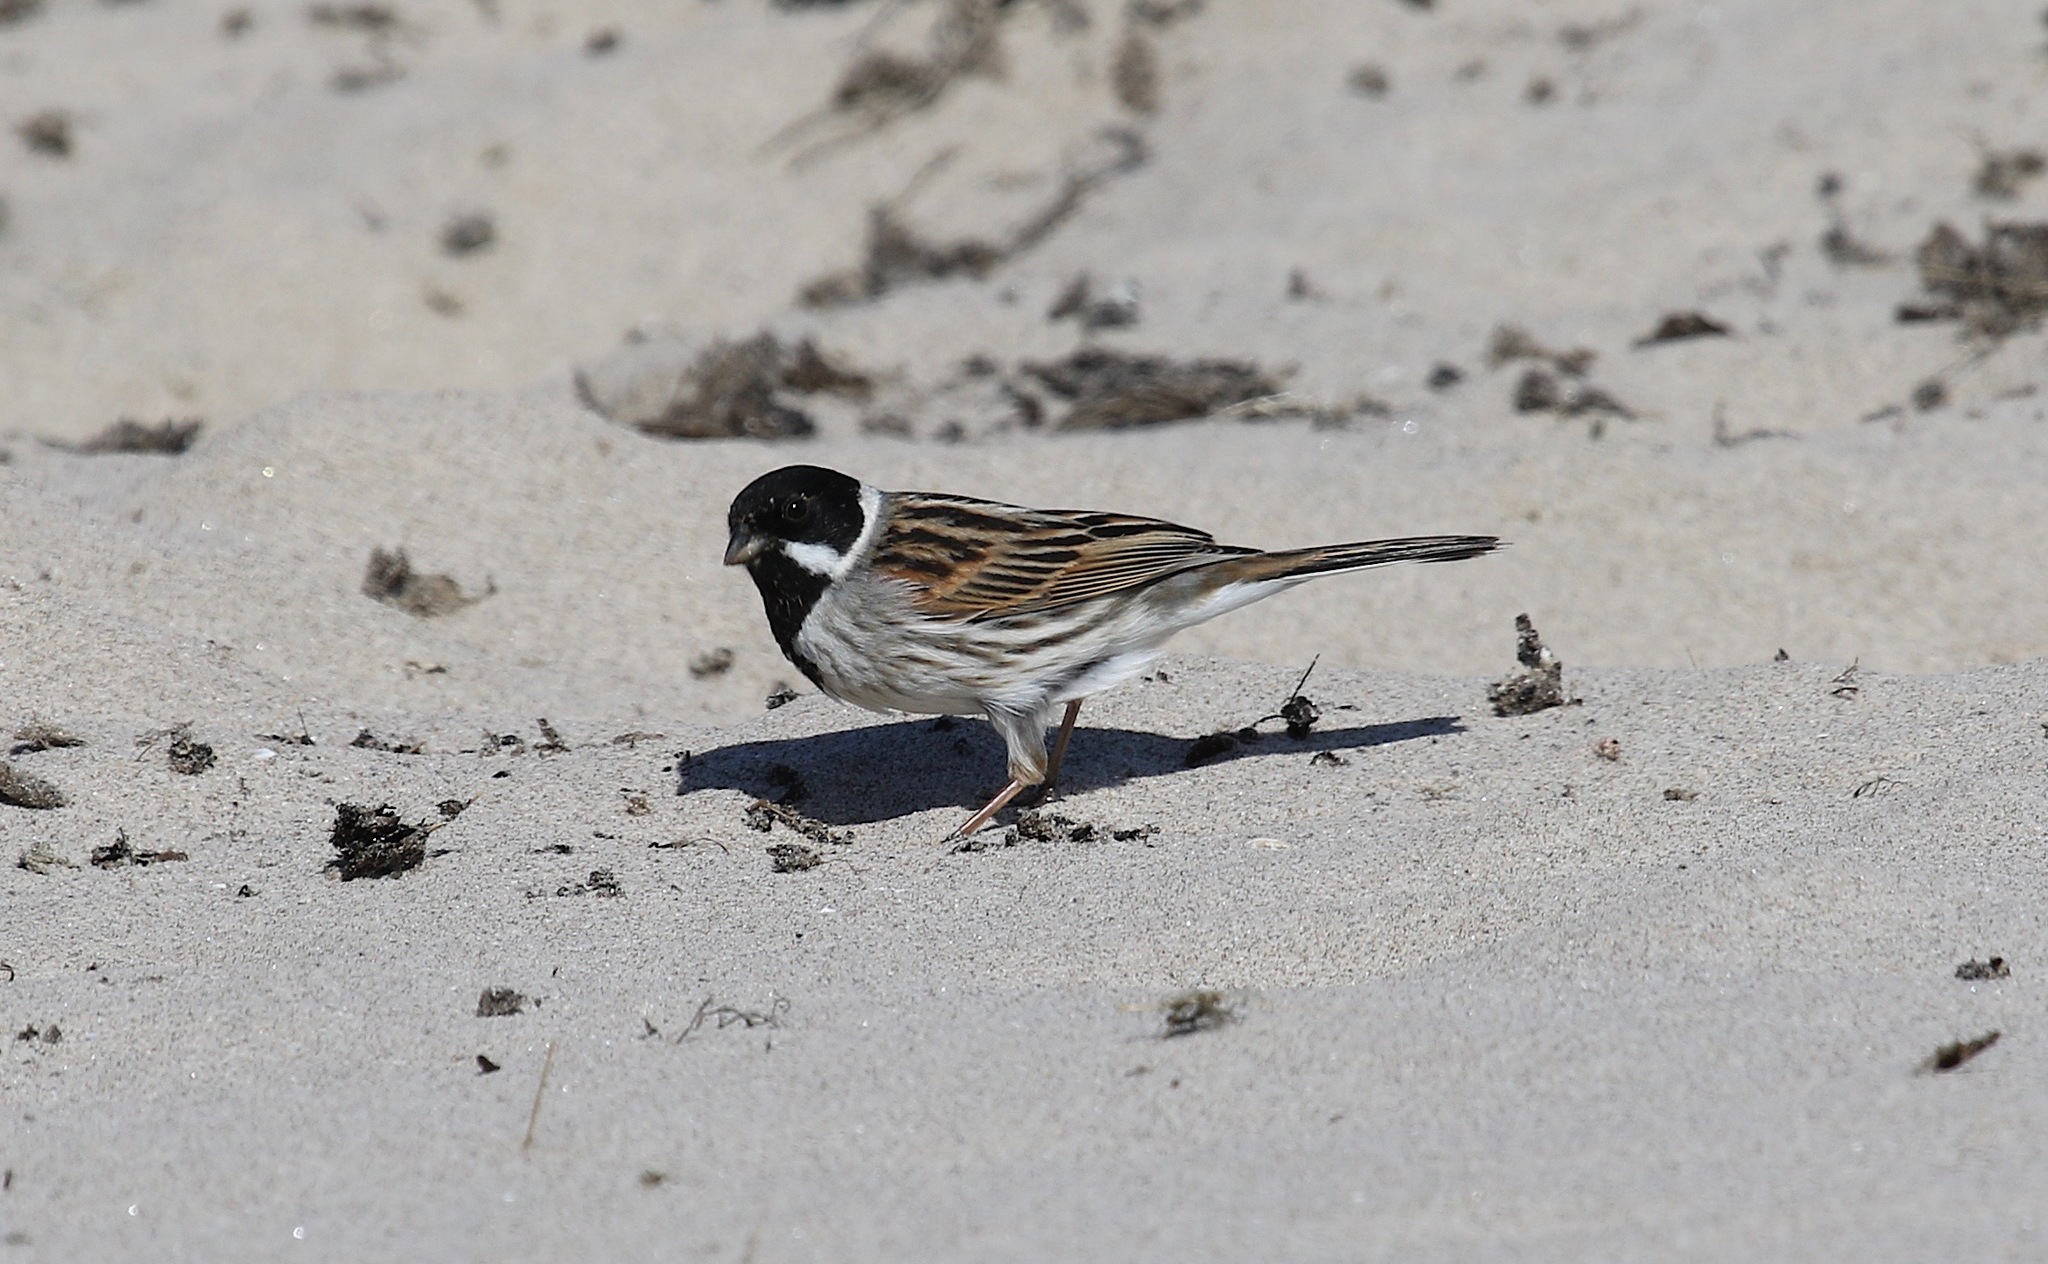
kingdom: Animalia
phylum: Chordata
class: Aves
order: Passeriformes
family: Emberizidae
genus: Emberiza
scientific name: Emberiza schoeniclus
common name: Reed bunting
